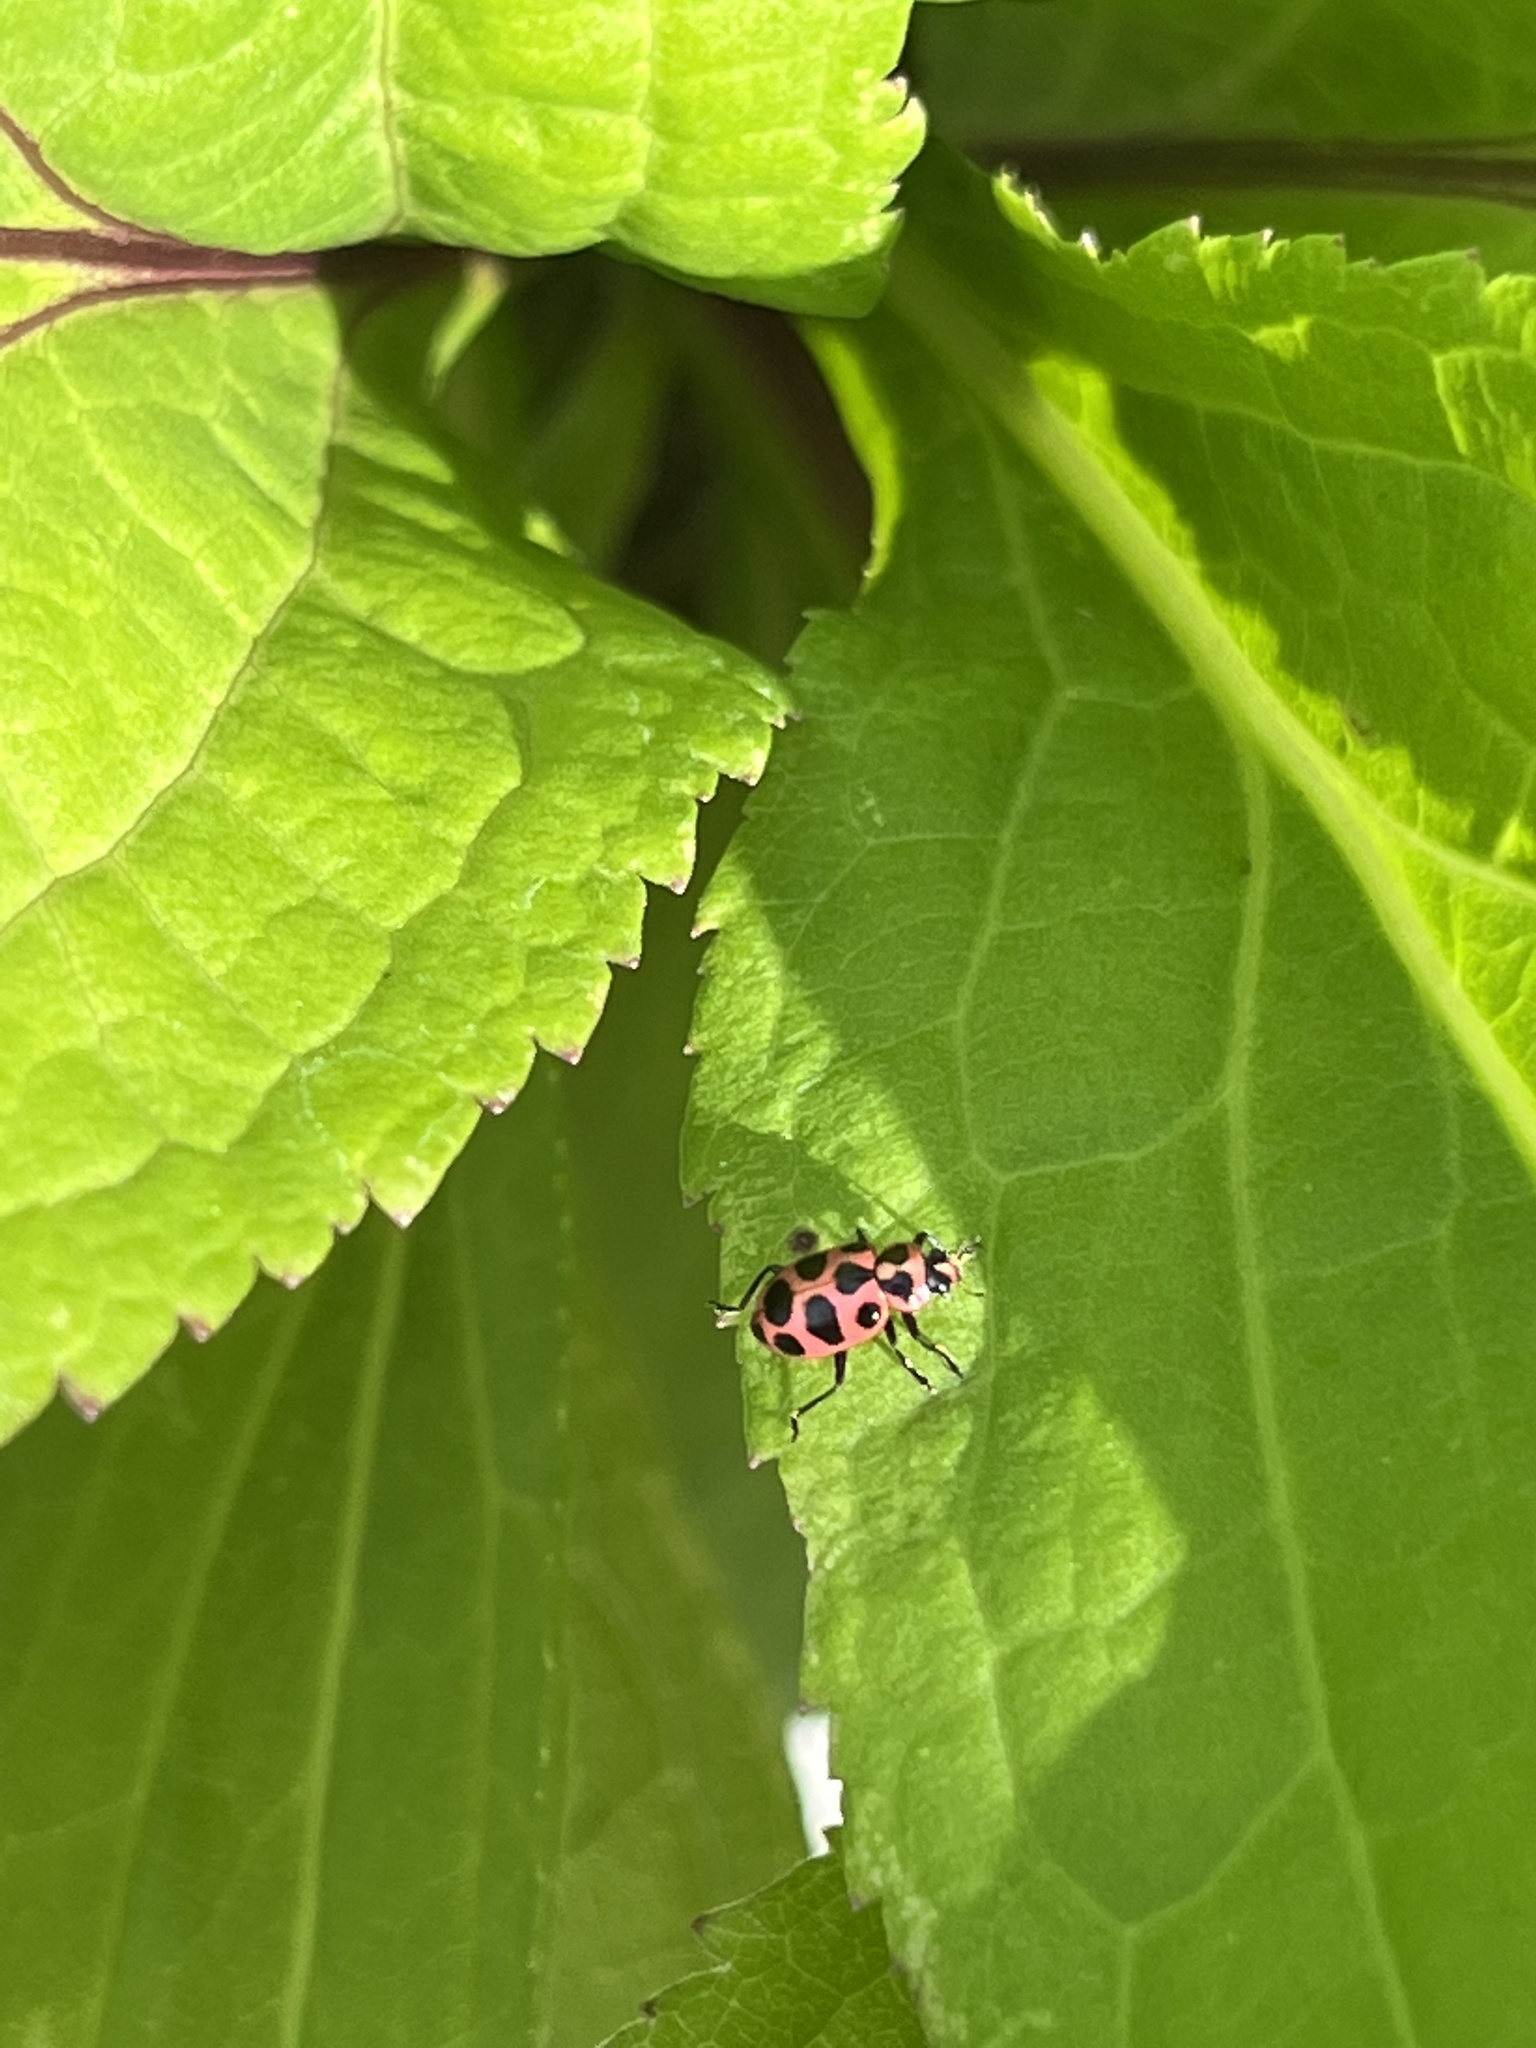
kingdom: Animalia
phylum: Arthropoda
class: Insecta
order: Coleoptera
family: Coccinellidae
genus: Coleomegilla
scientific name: Coleomegilla maculata
